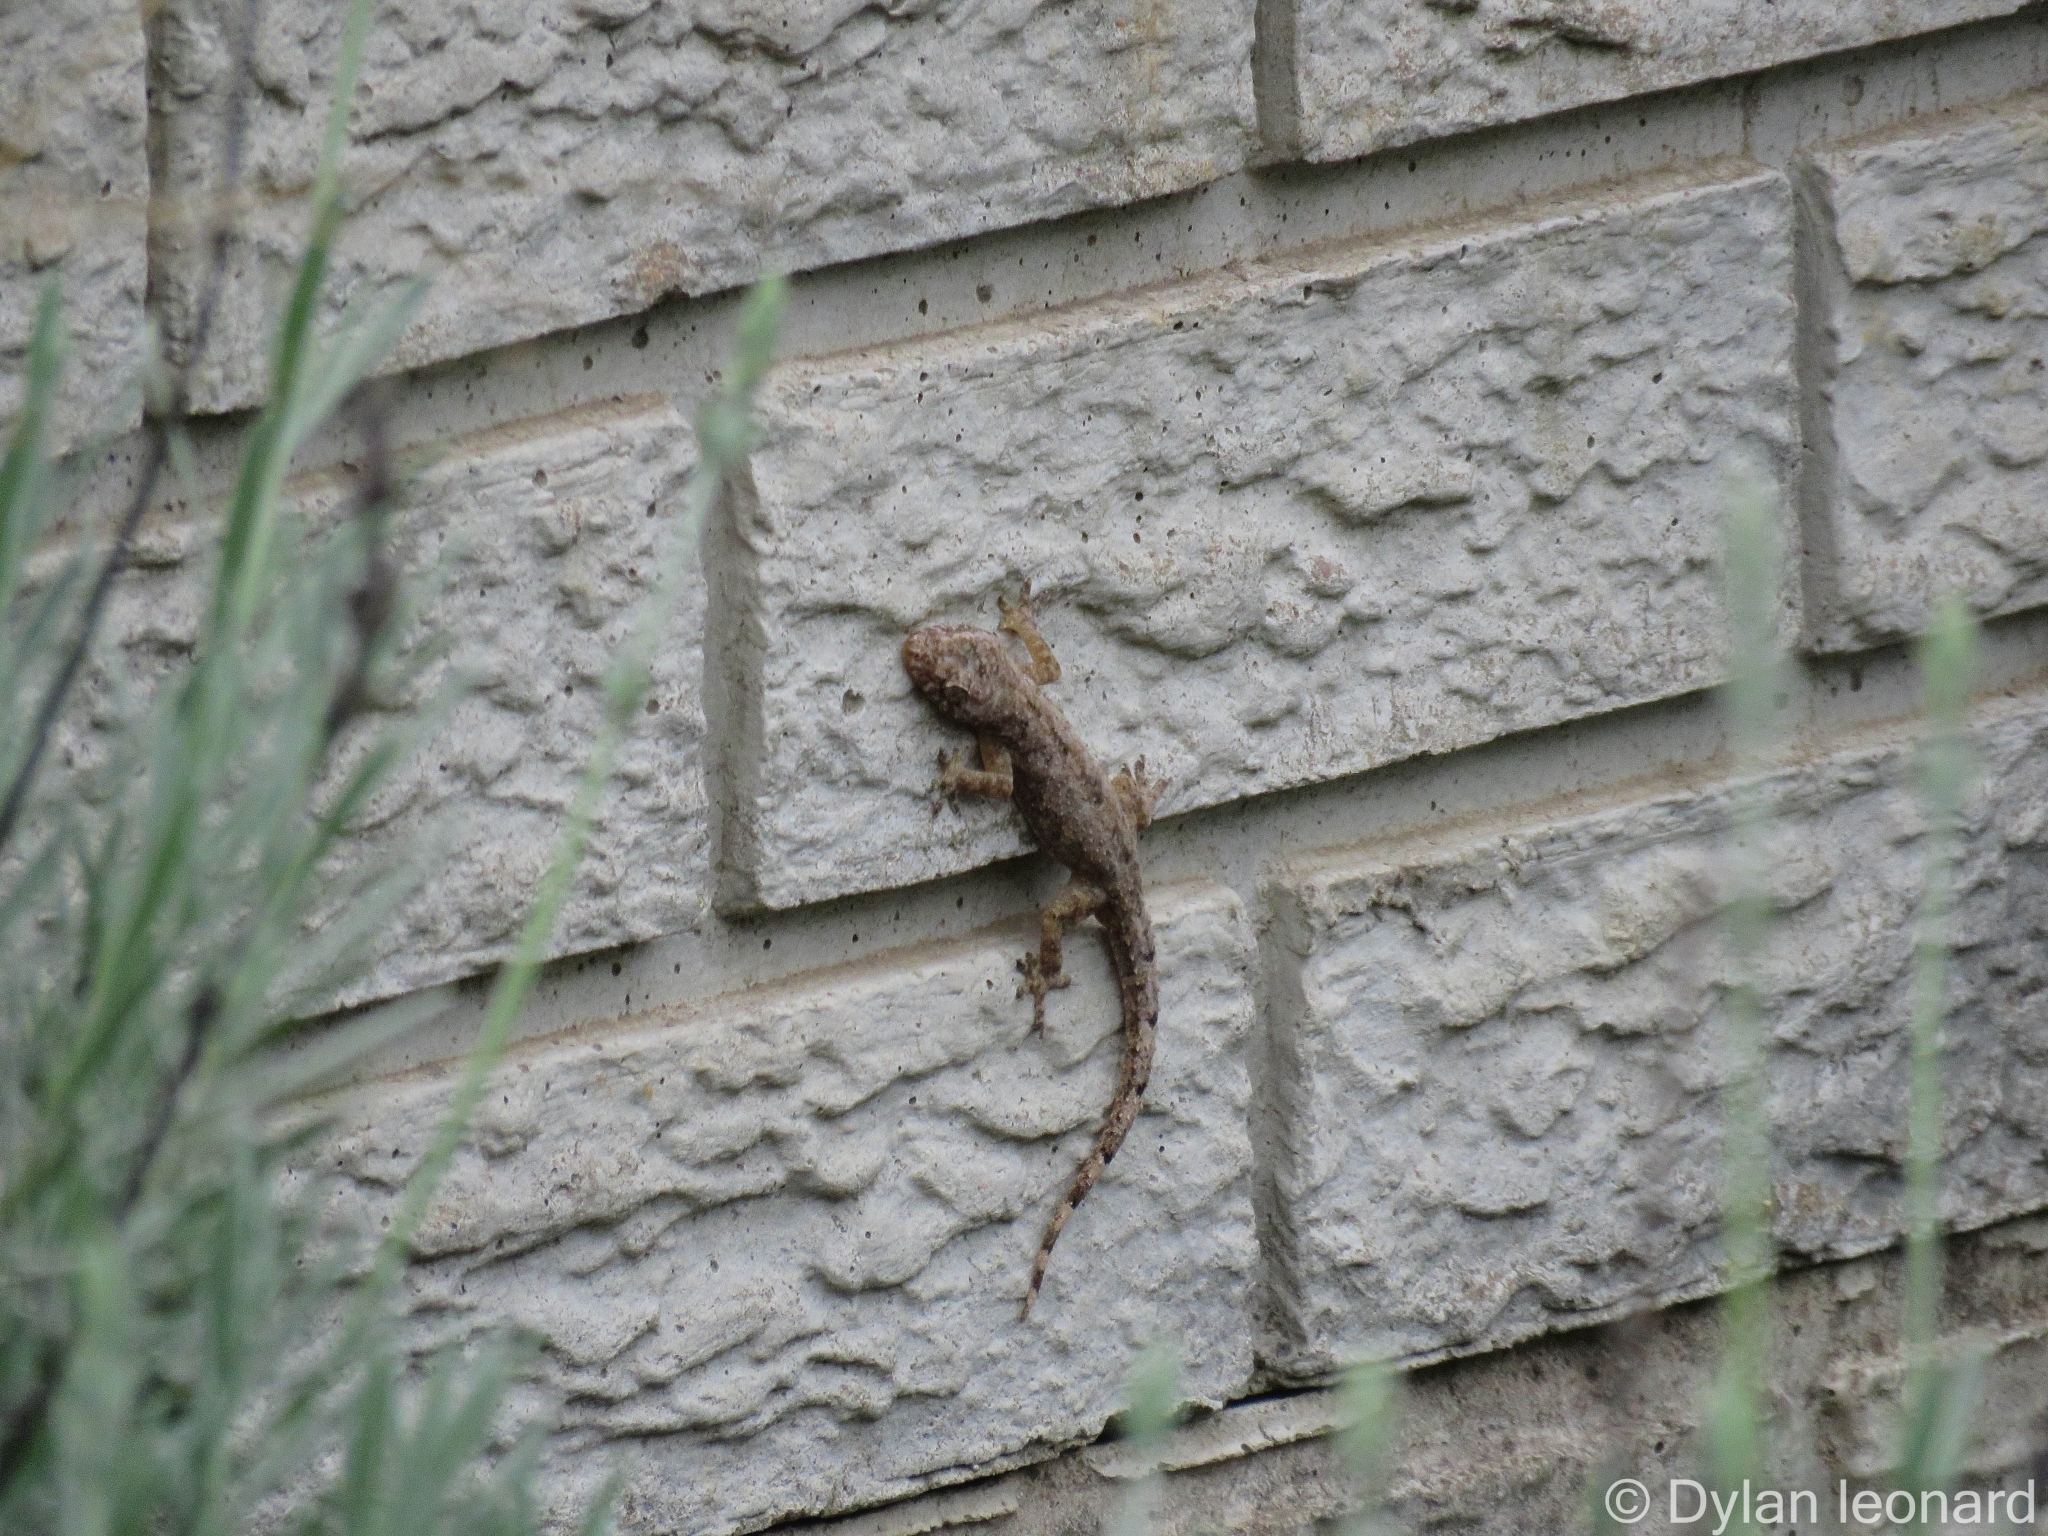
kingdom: Animalia
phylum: Chordata
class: Squamata
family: Gekkonidae
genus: Hemidactylus
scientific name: Hemidactylus mabouia
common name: House gecko
